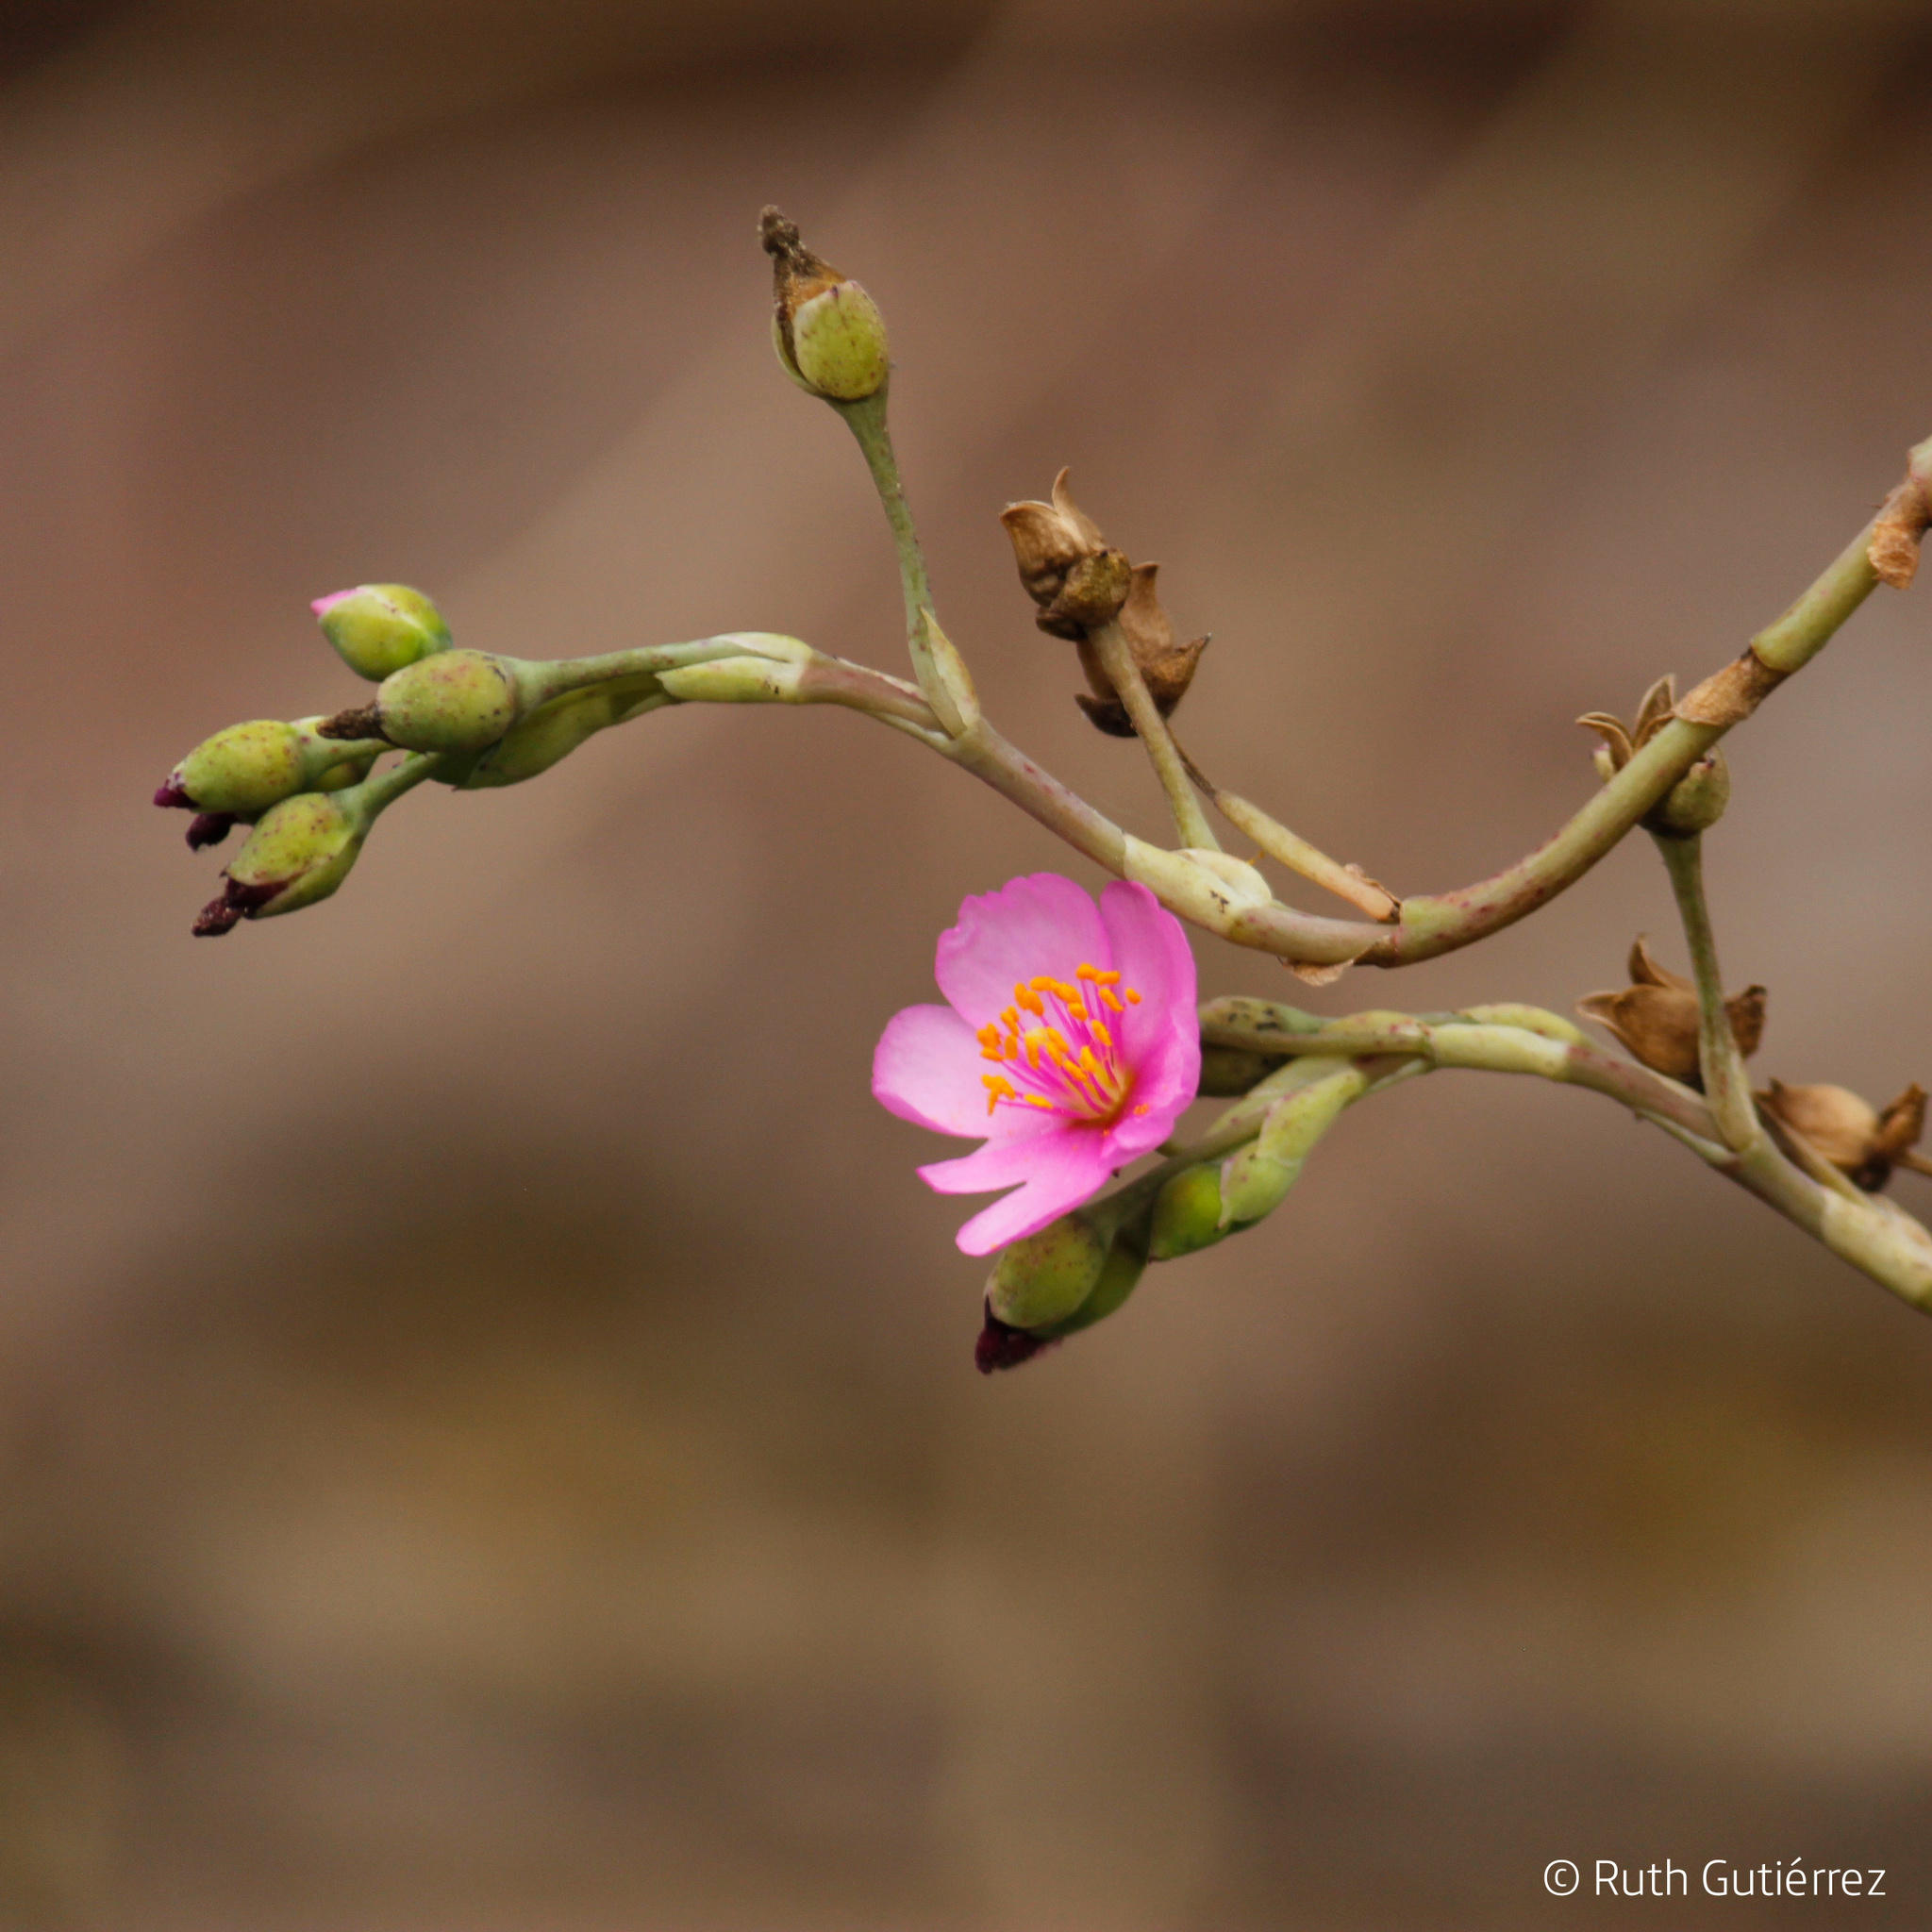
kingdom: Plantae
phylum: Tracheophyta
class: Magnoliopsida
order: Caryophyllales
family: Talinaceae
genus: Talinum
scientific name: Talinum paniculatum
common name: Jewels of opar
